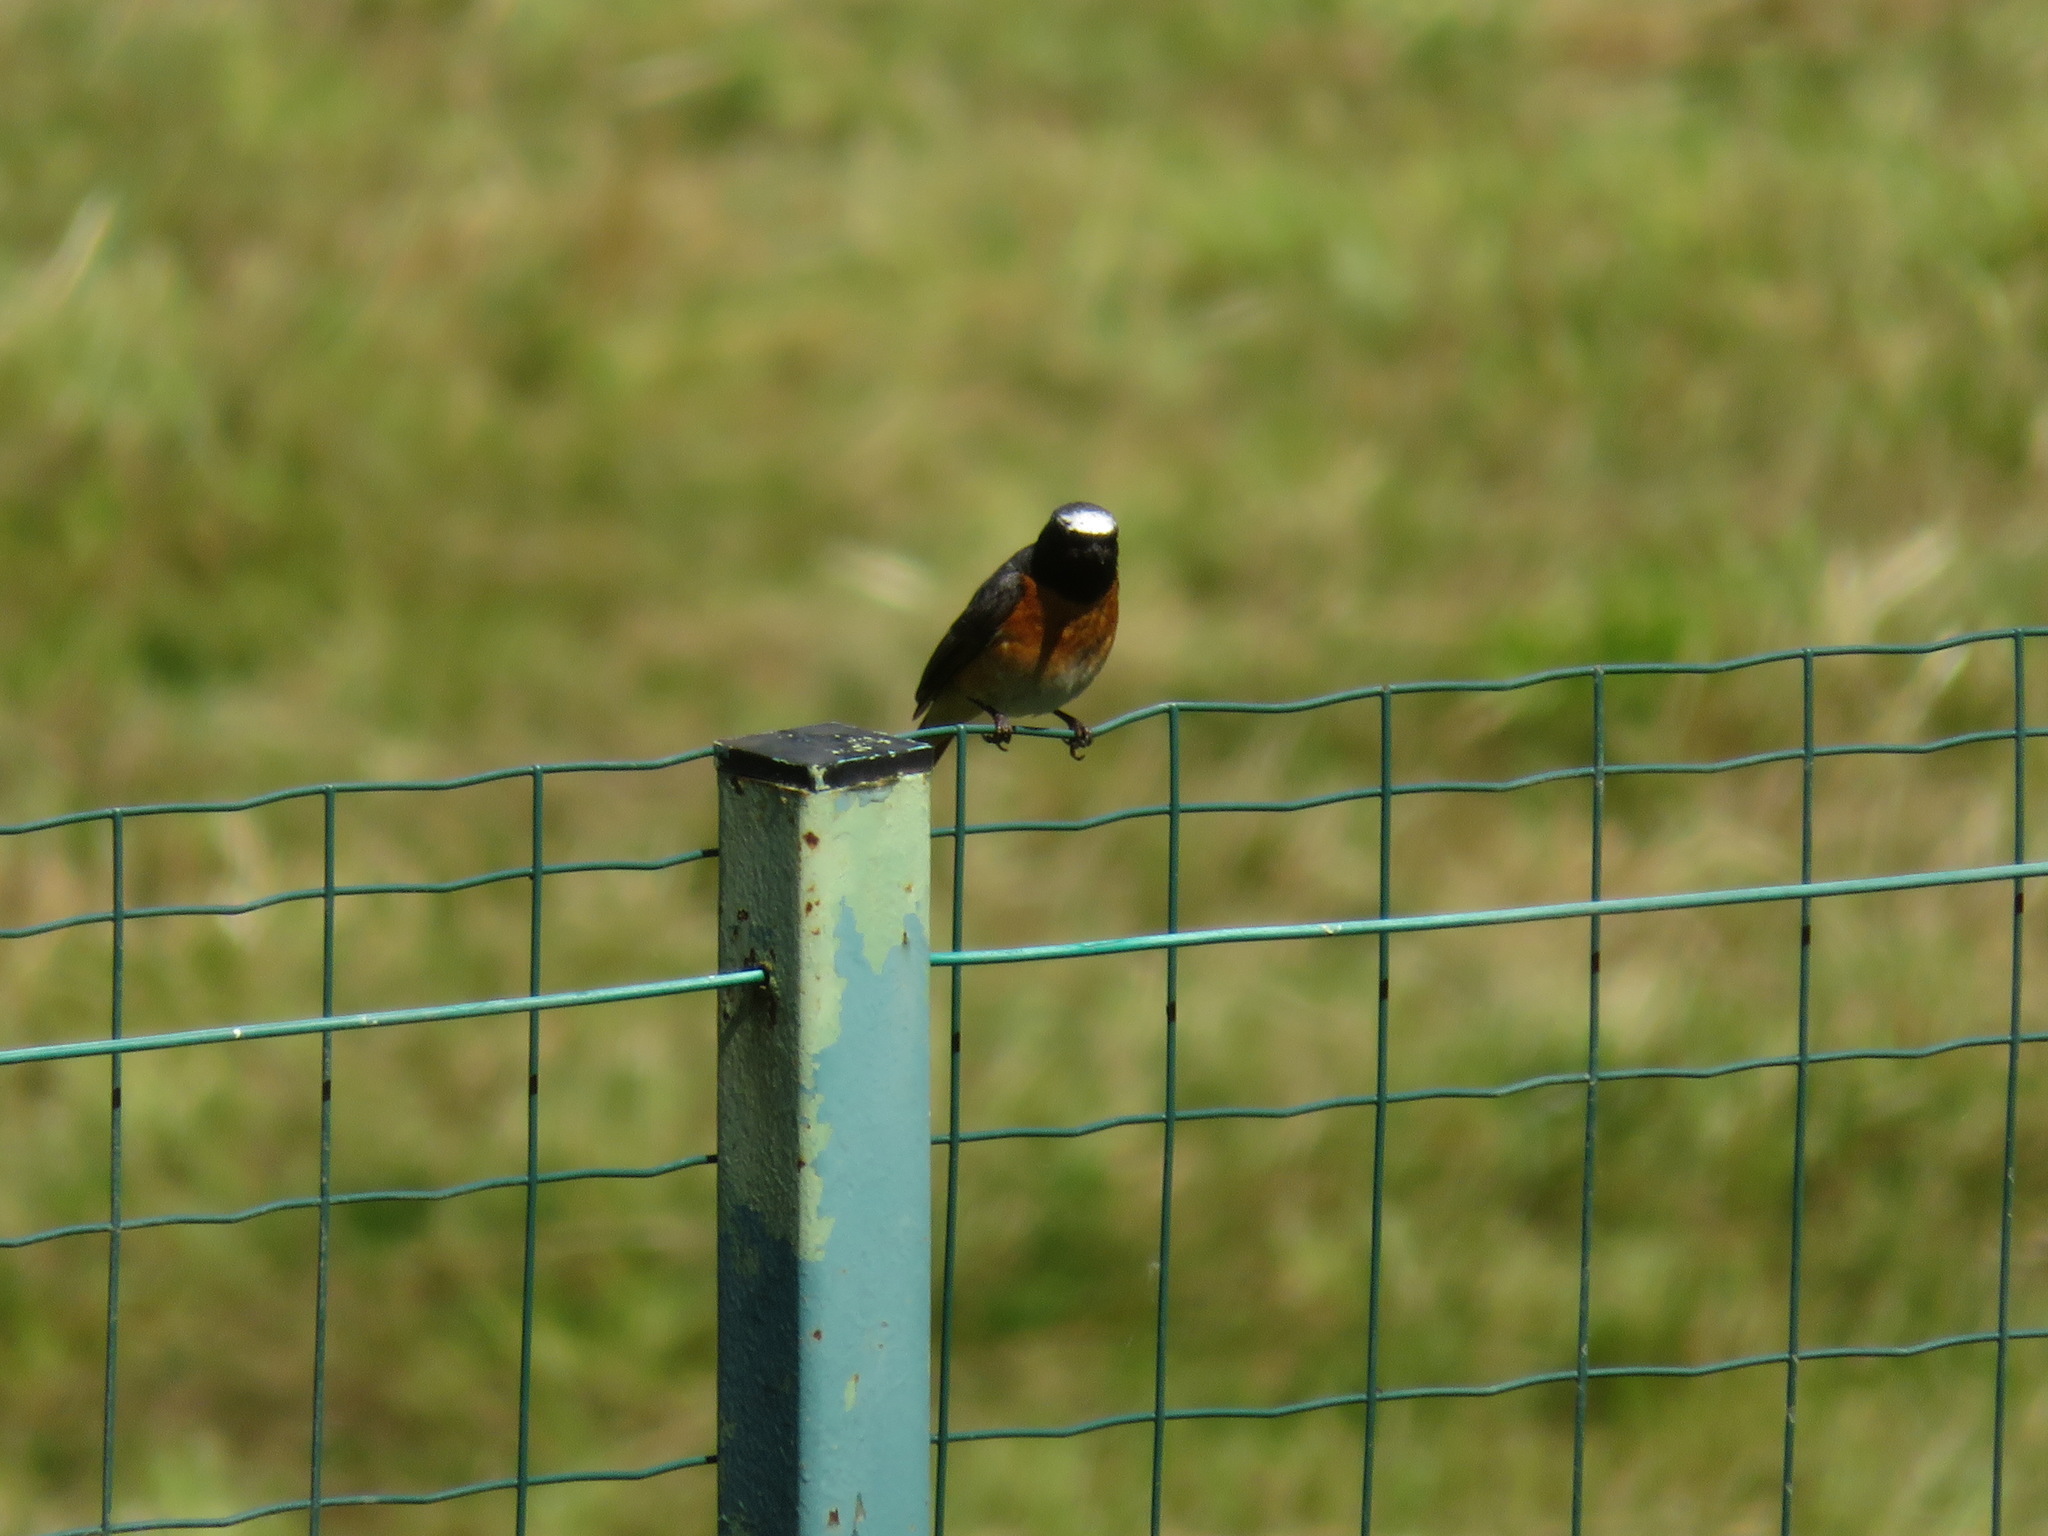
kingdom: Animalia
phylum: Chordata
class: Aves
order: Passeriformes
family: Muscicapidae
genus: Phoenicurus
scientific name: Phoenicurus phoenicurus
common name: Common redstart
